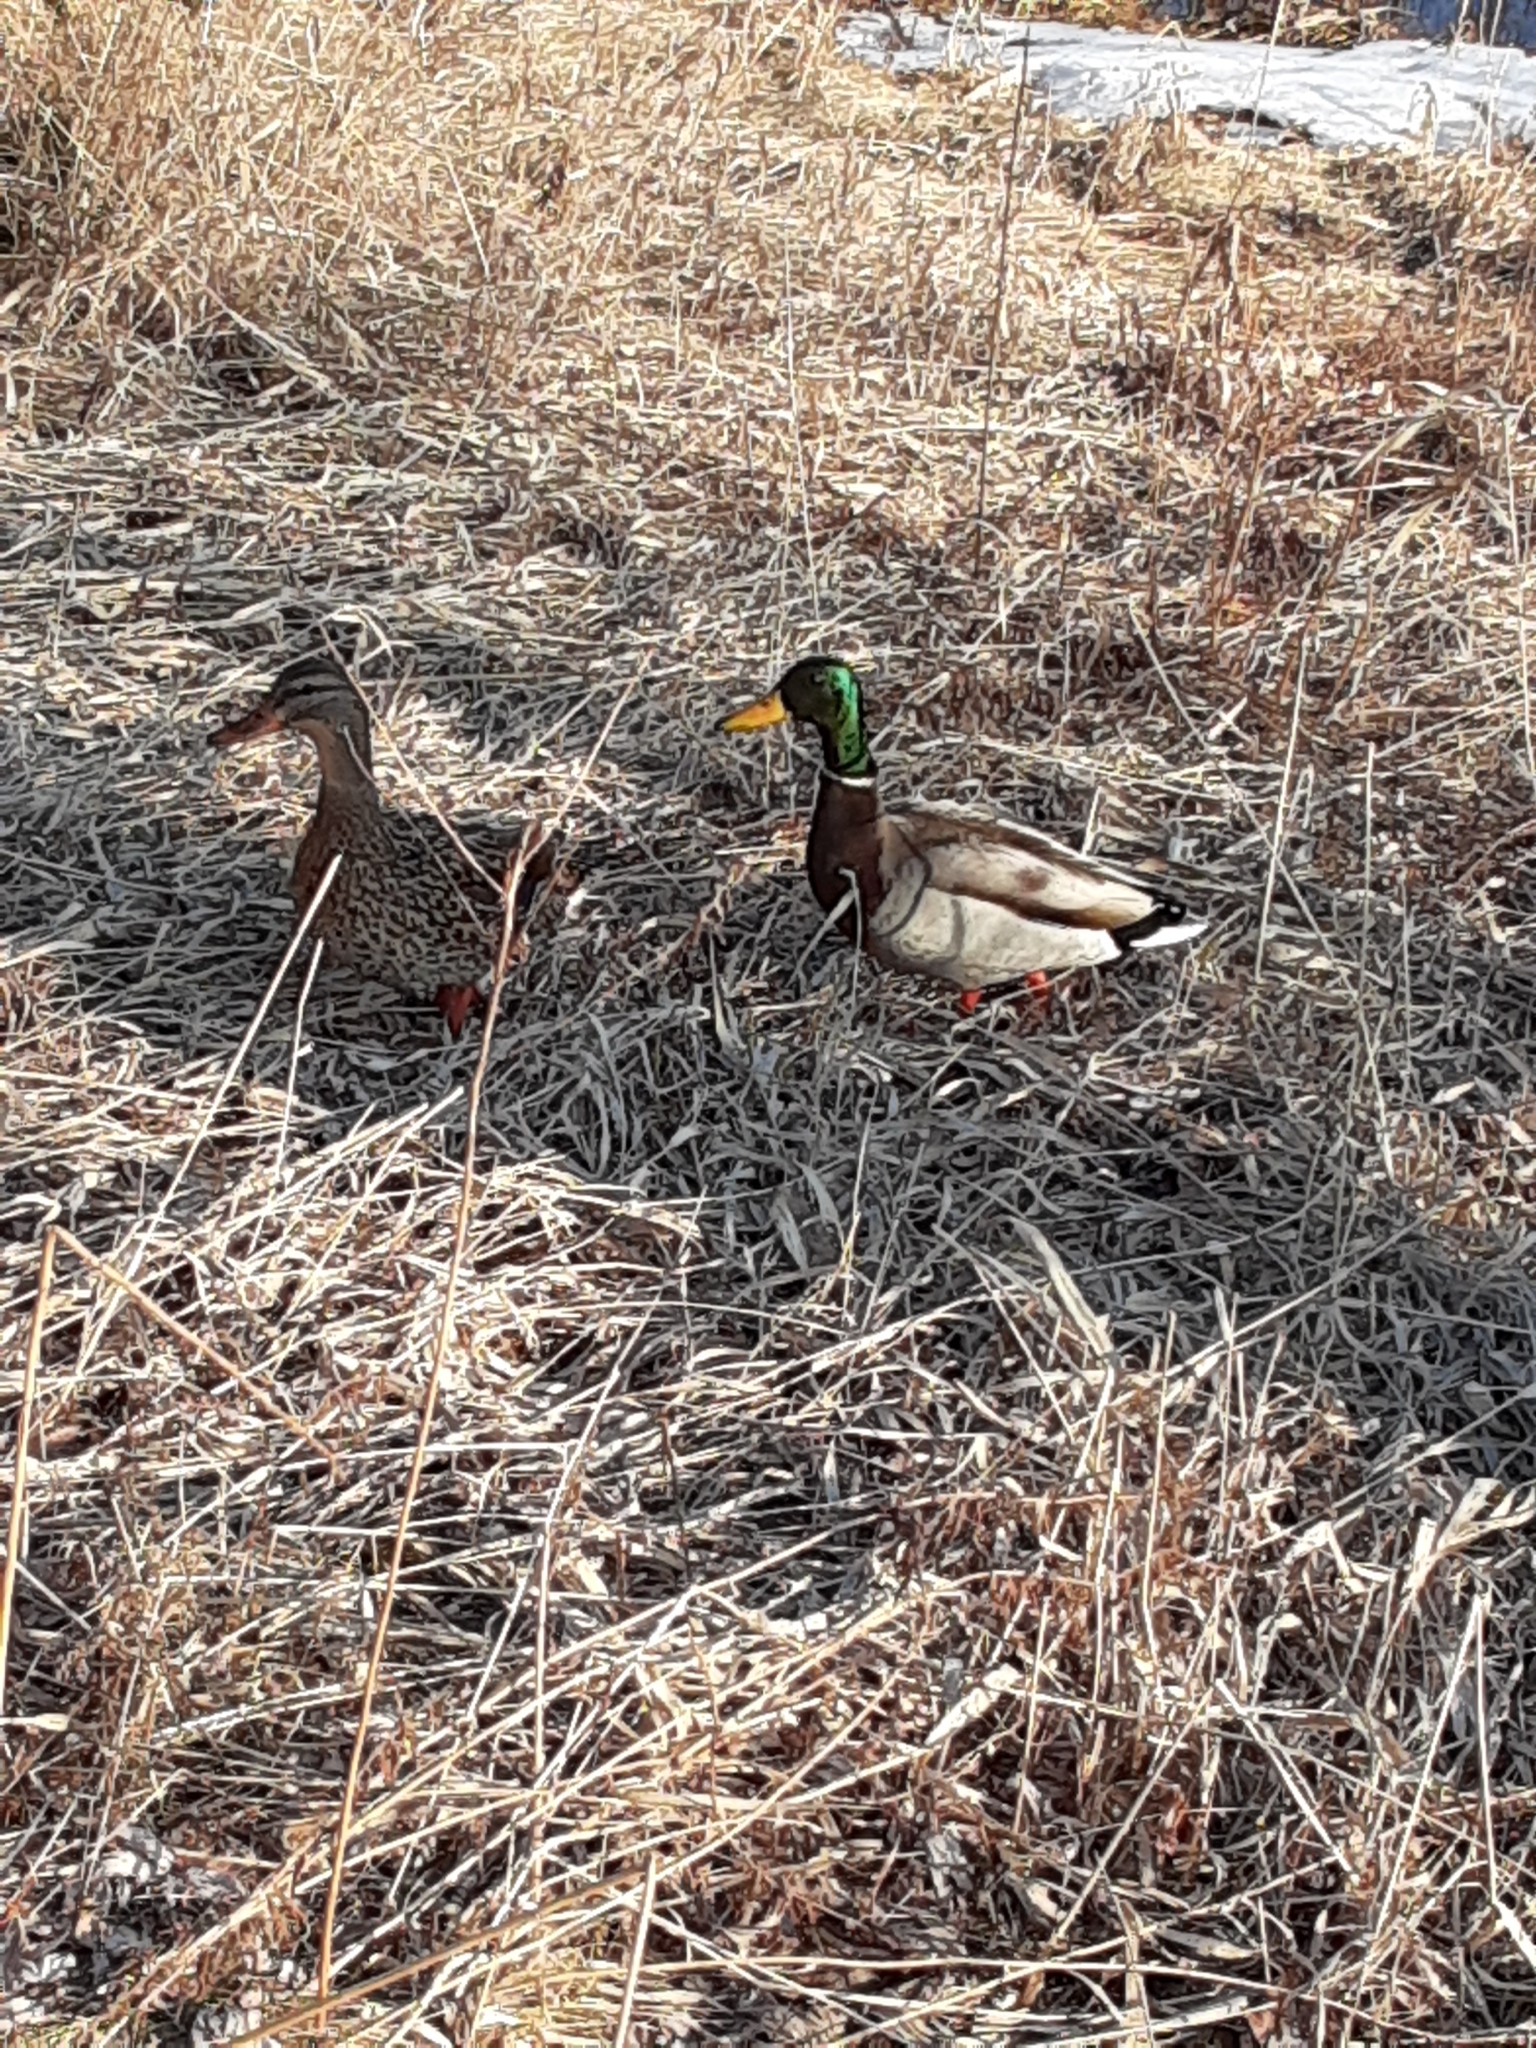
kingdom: Animalia
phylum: Chordata
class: Aves
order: Anseriformes
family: Anatidae
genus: Anas
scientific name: Anas platyrhynchos
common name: Mallard
